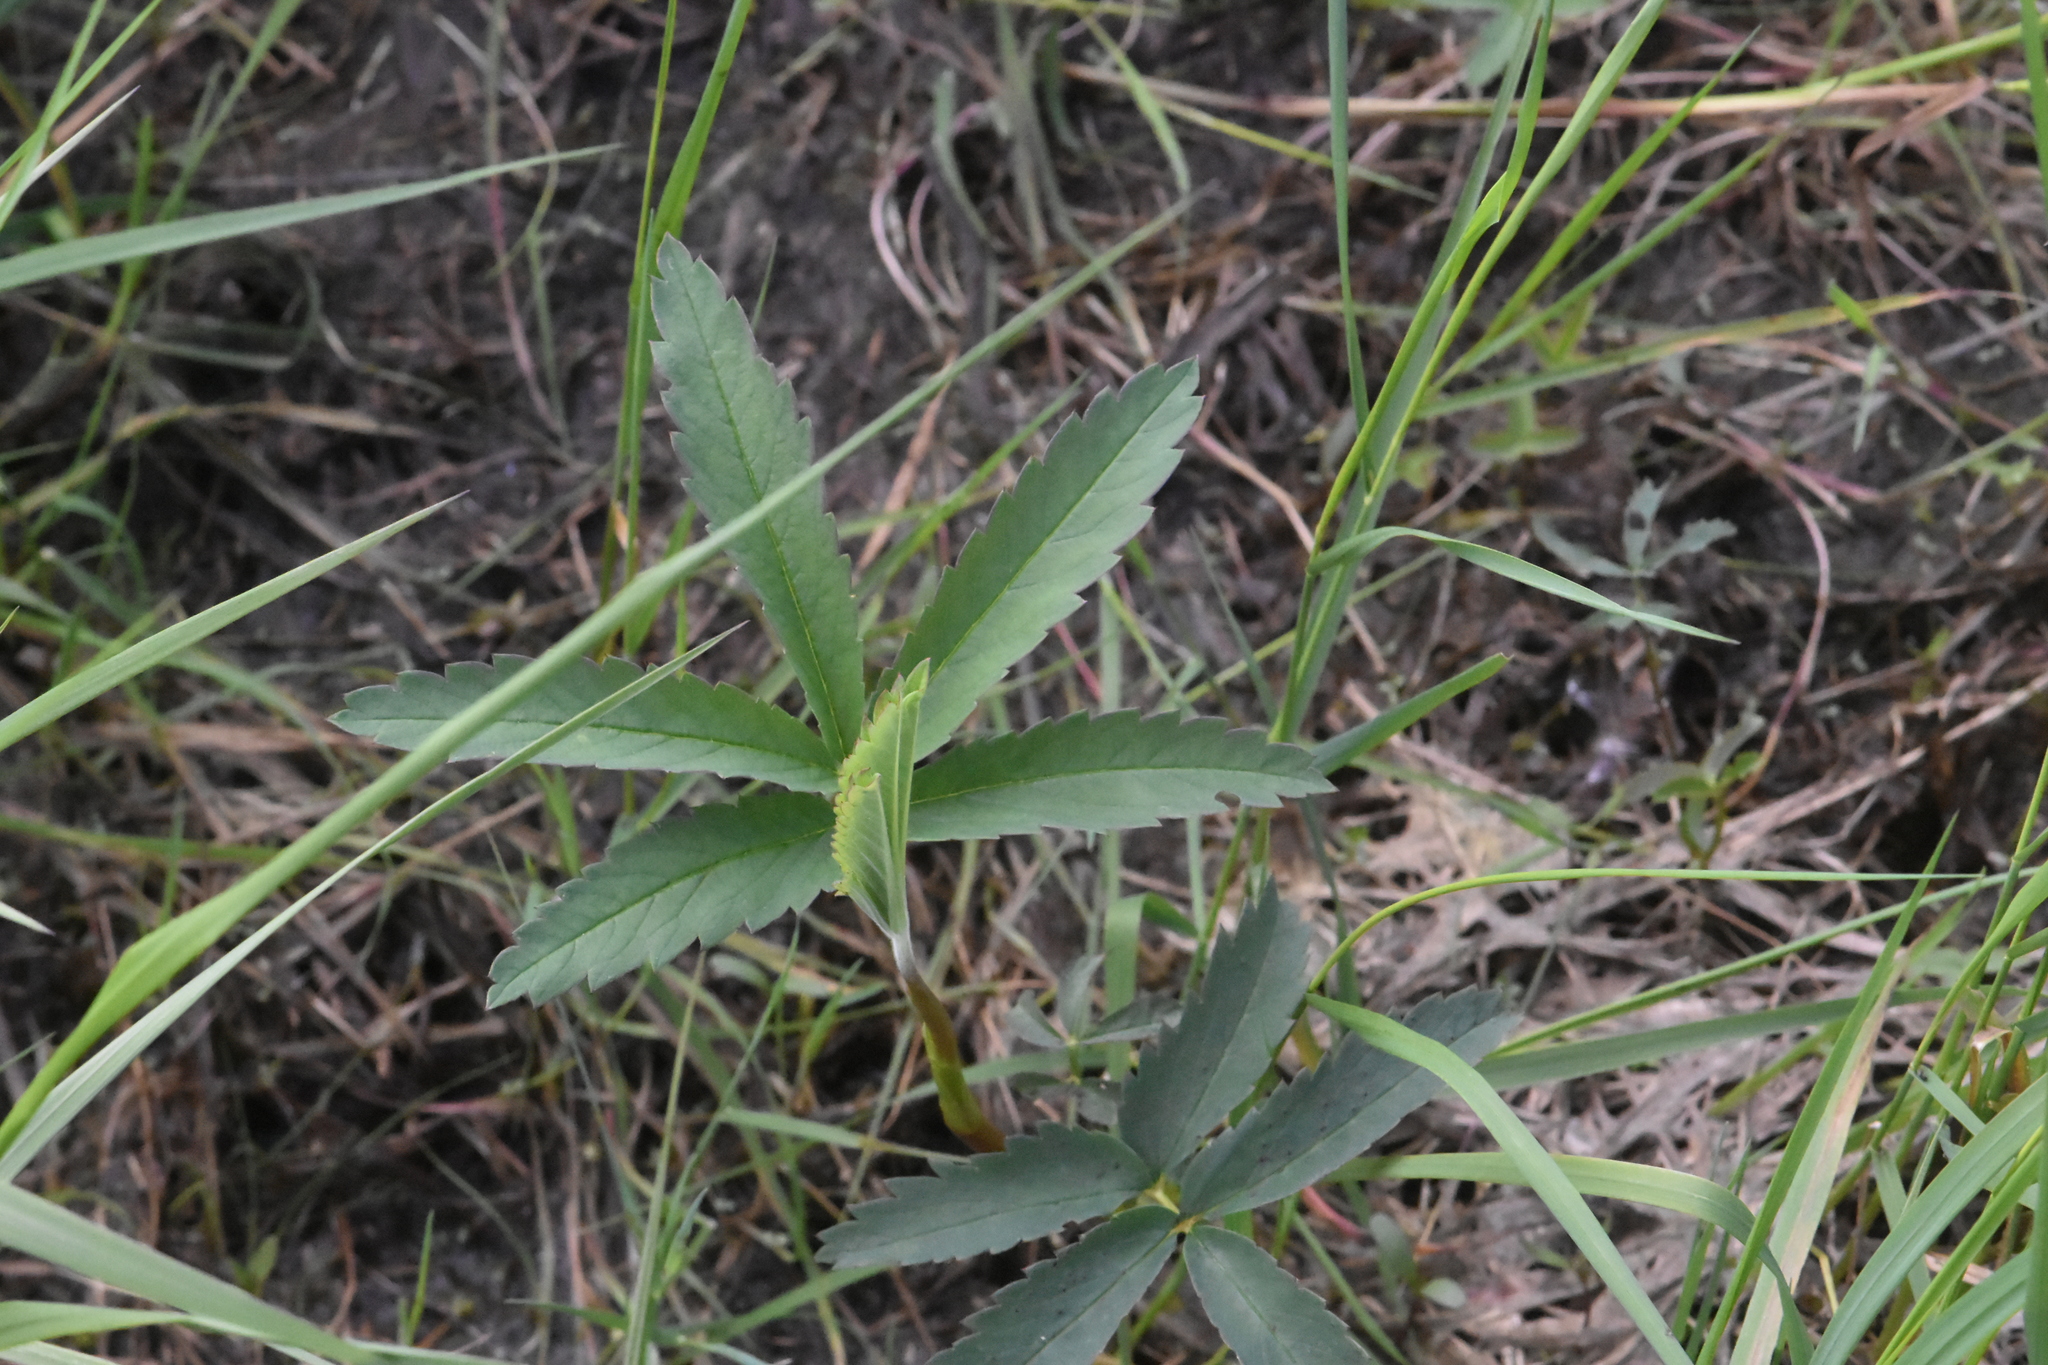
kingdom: Plantae
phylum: Tracheophyta
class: Magnoliopsida
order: Rosales
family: Rosaceae
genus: Comarum
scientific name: Comarum palustre
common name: Marsh cinquefoil
